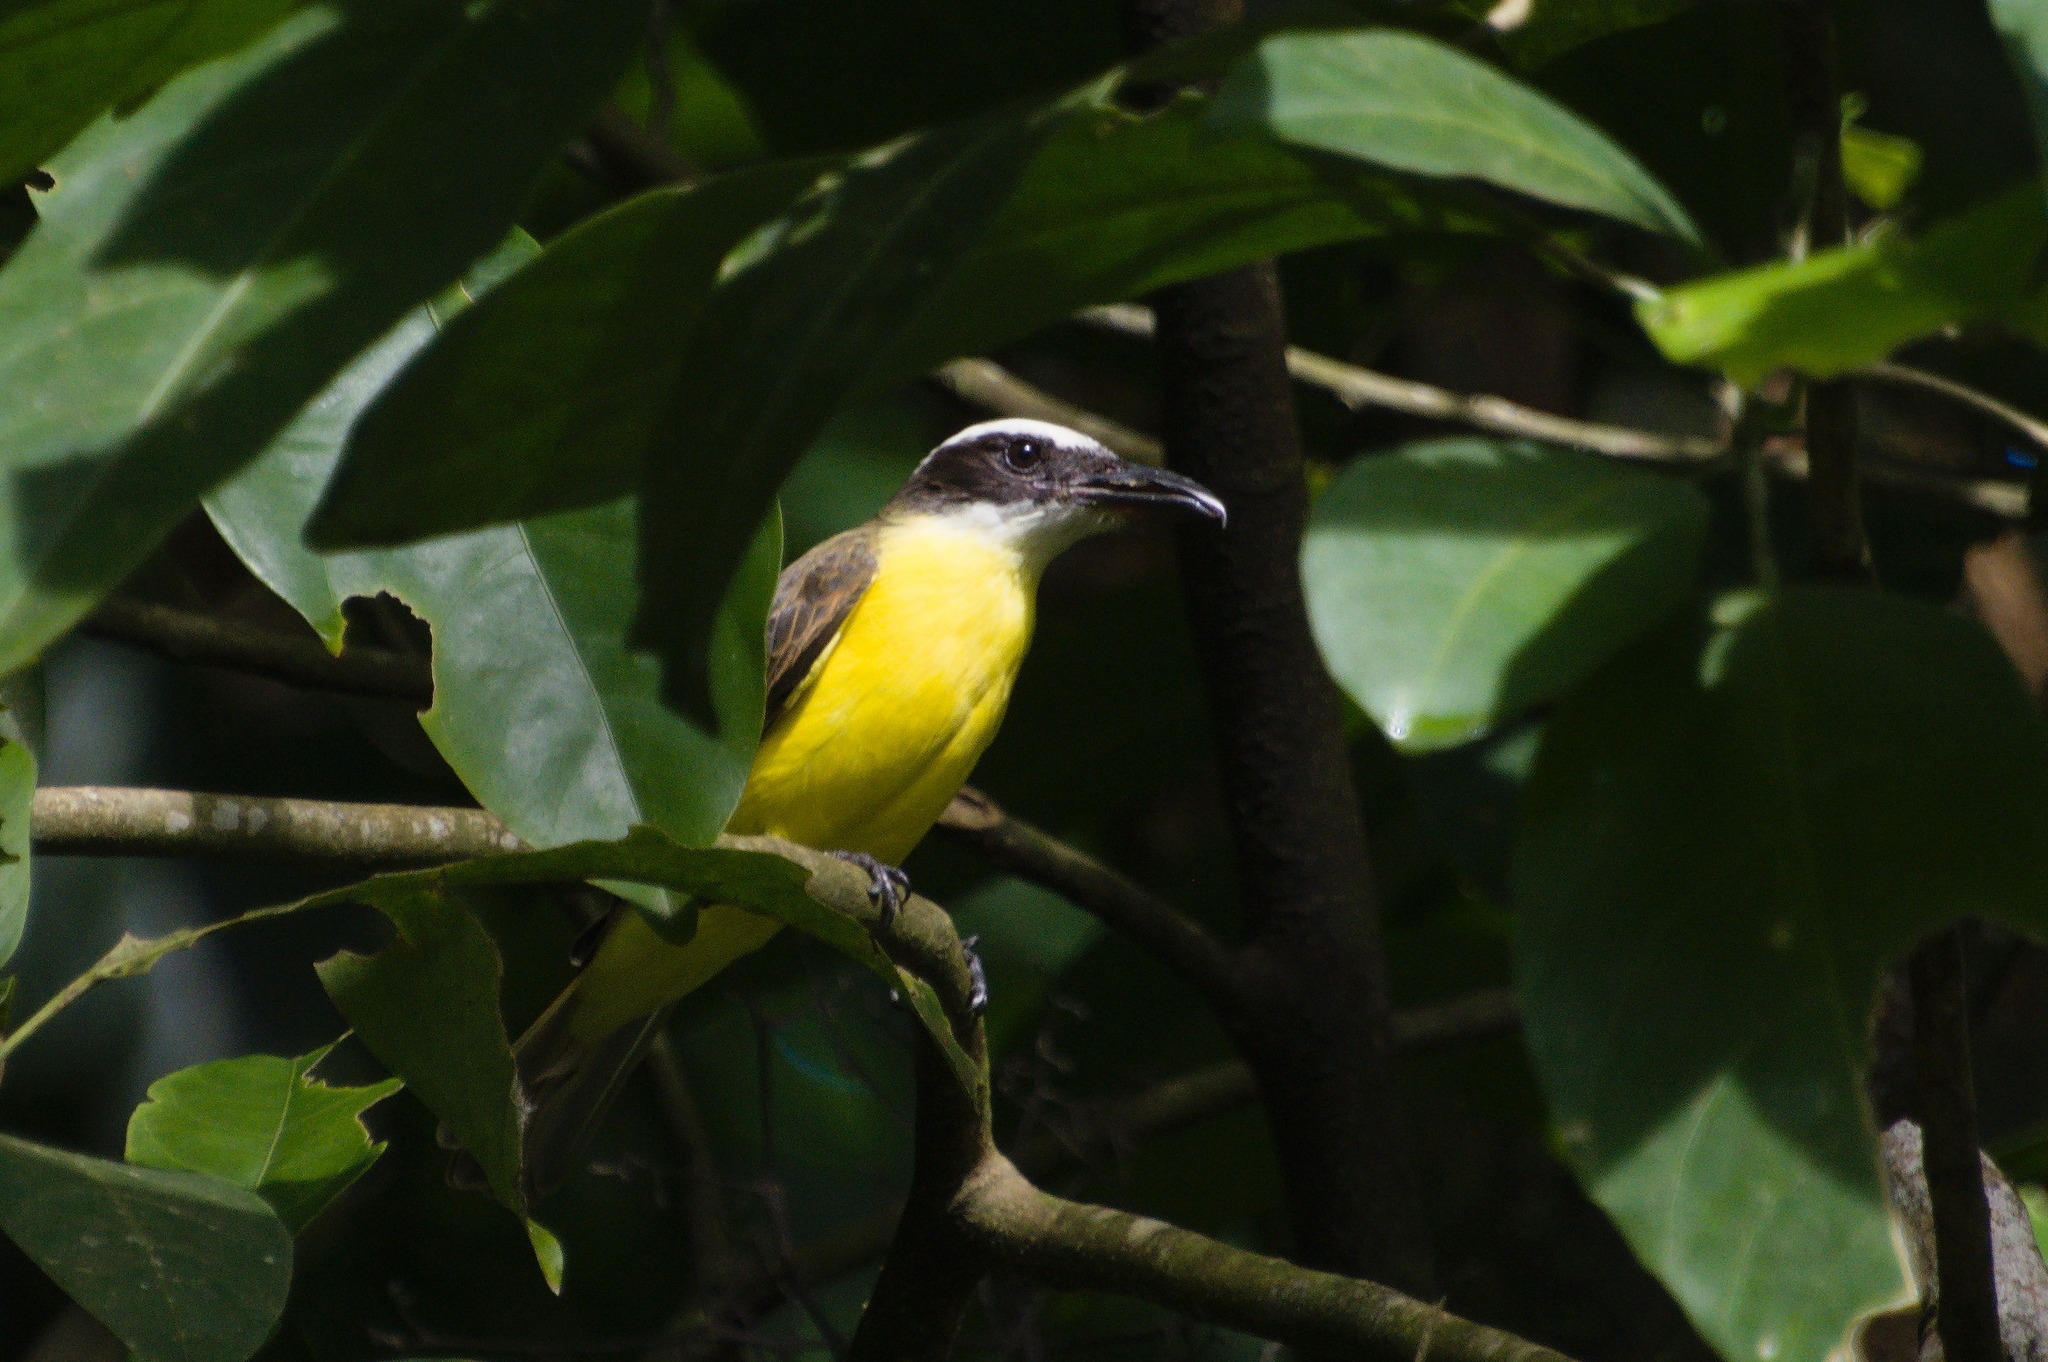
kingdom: Animalia
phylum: Chordata
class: Aves
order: Passeriformes
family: Tyrannidae
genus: Megarynchus
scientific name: Megarynchus pitangua
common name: Boat-billed flycatcher
